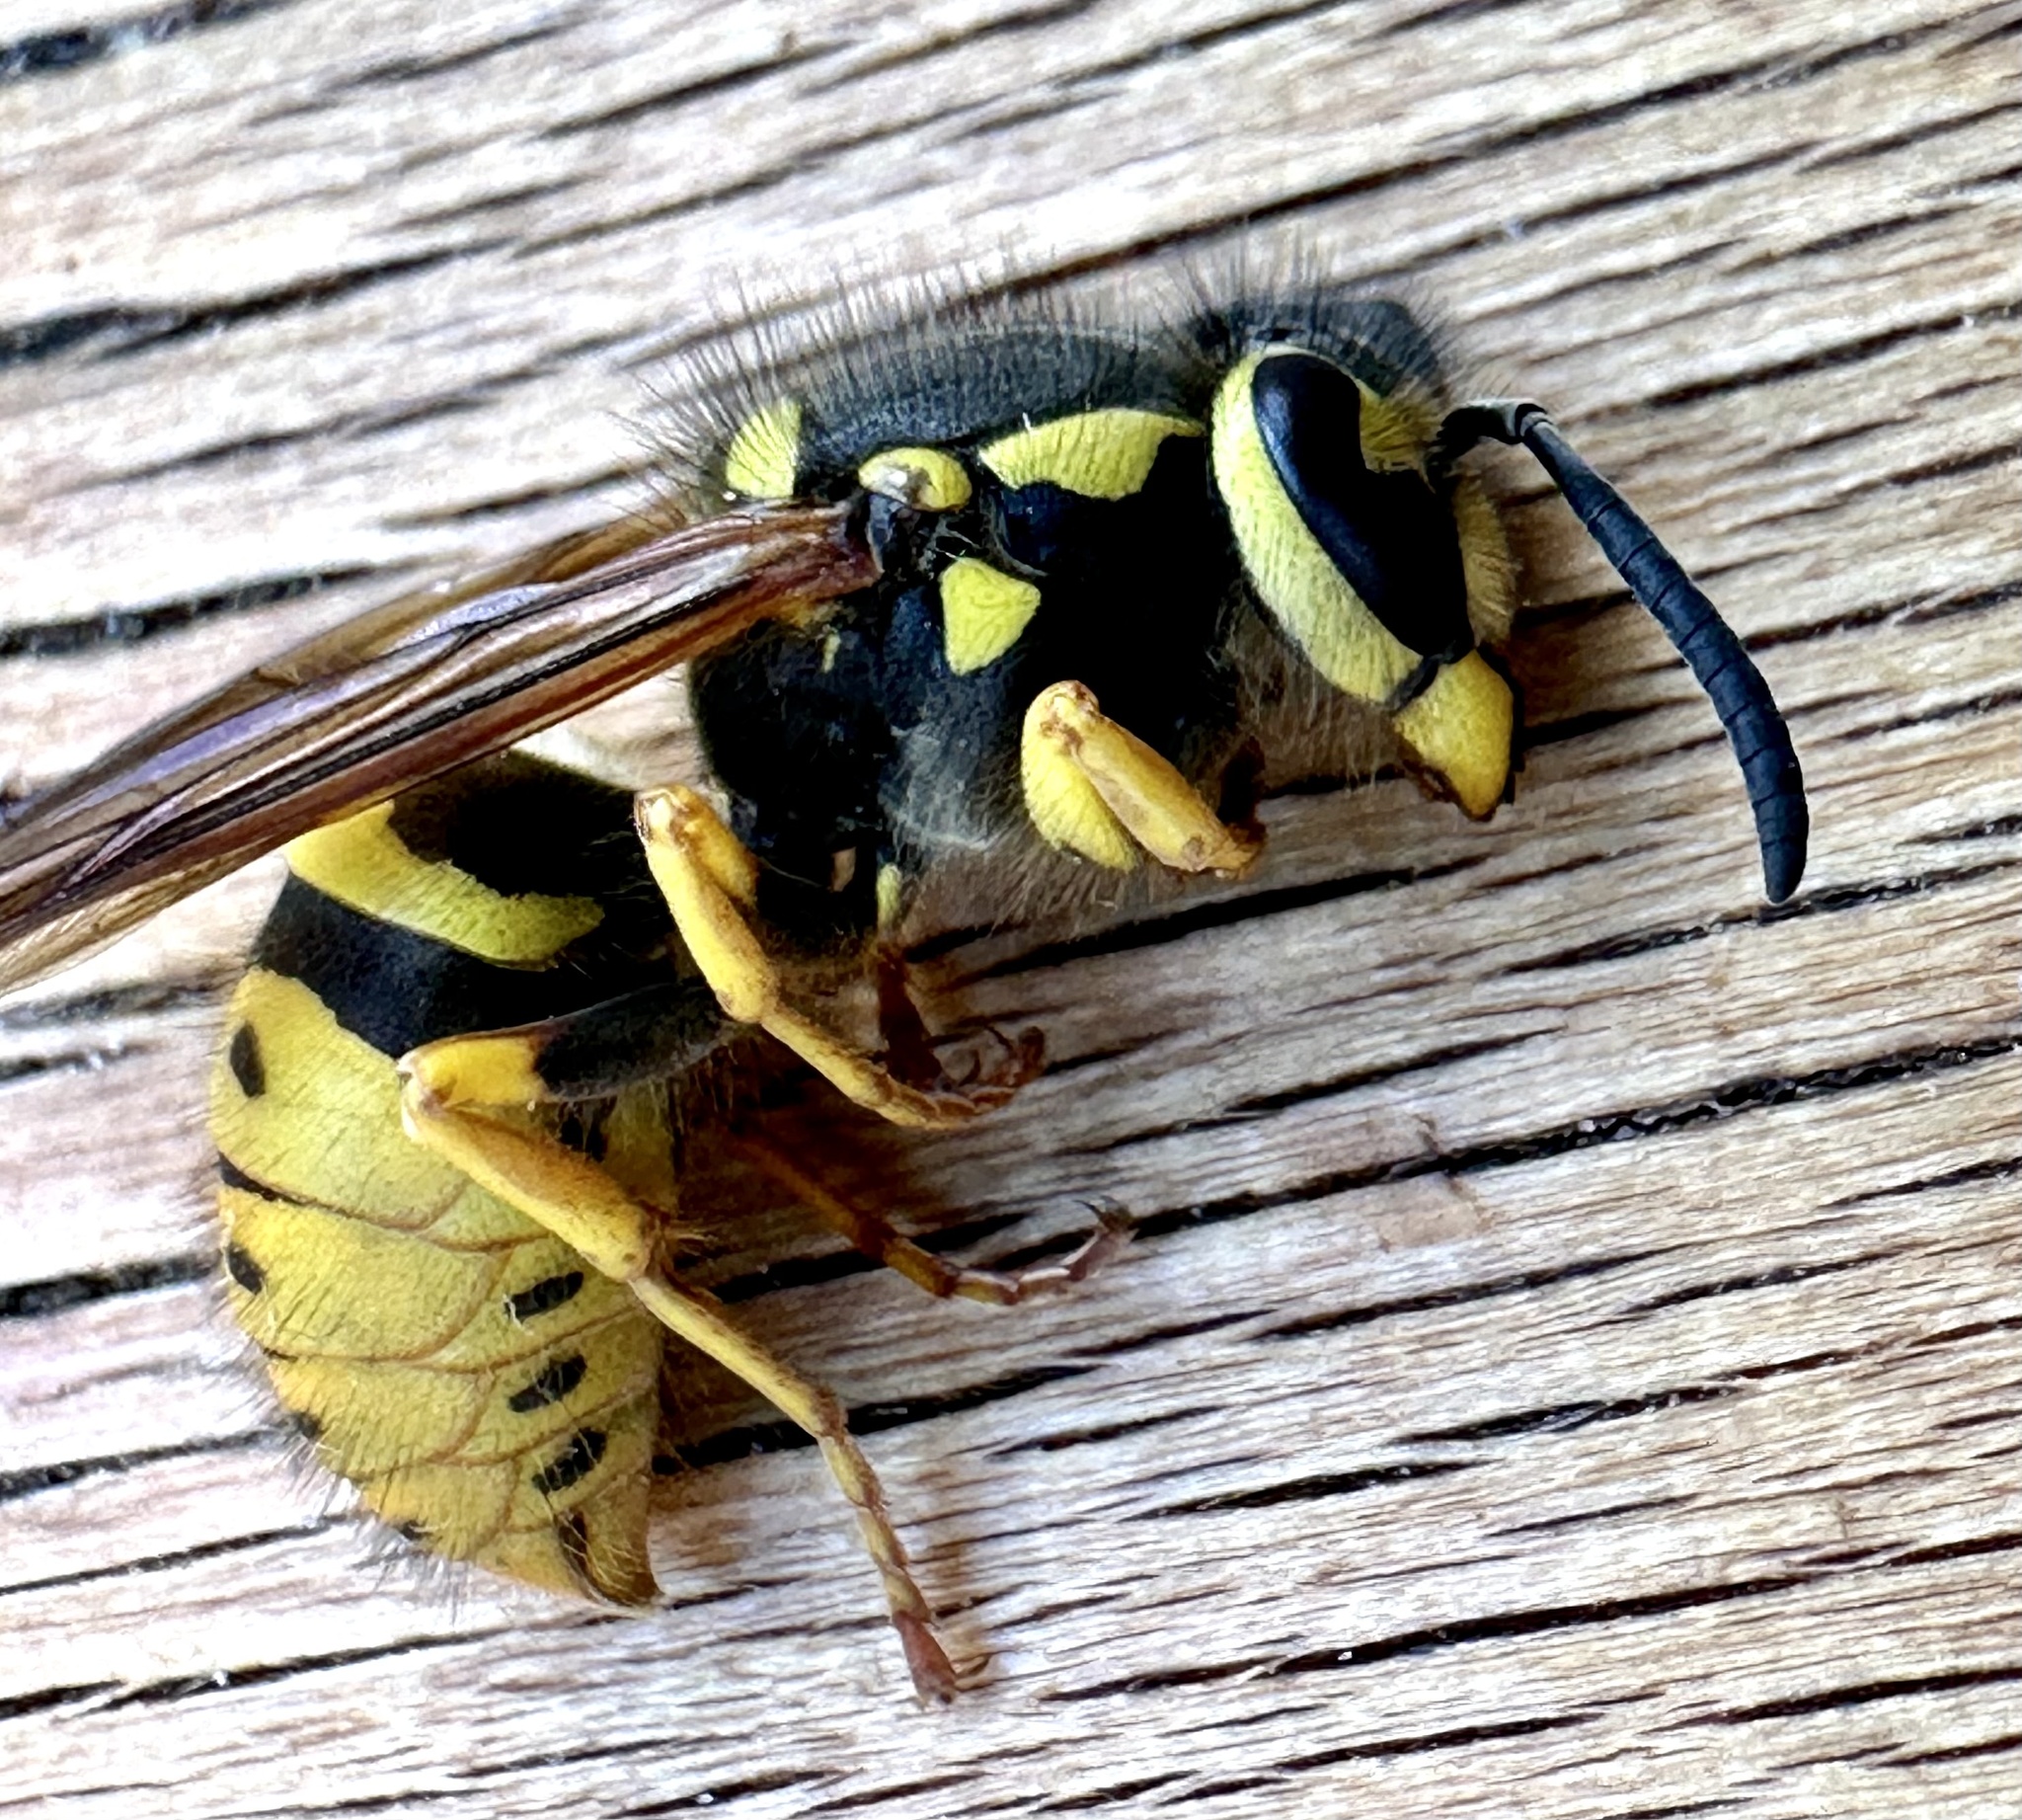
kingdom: Animalia
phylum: Arthropoda
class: Insecta
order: Hymenoptera
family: Vespidae
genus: Vespula
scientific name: Vespula pensylvanica
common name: Western yellowjacket
